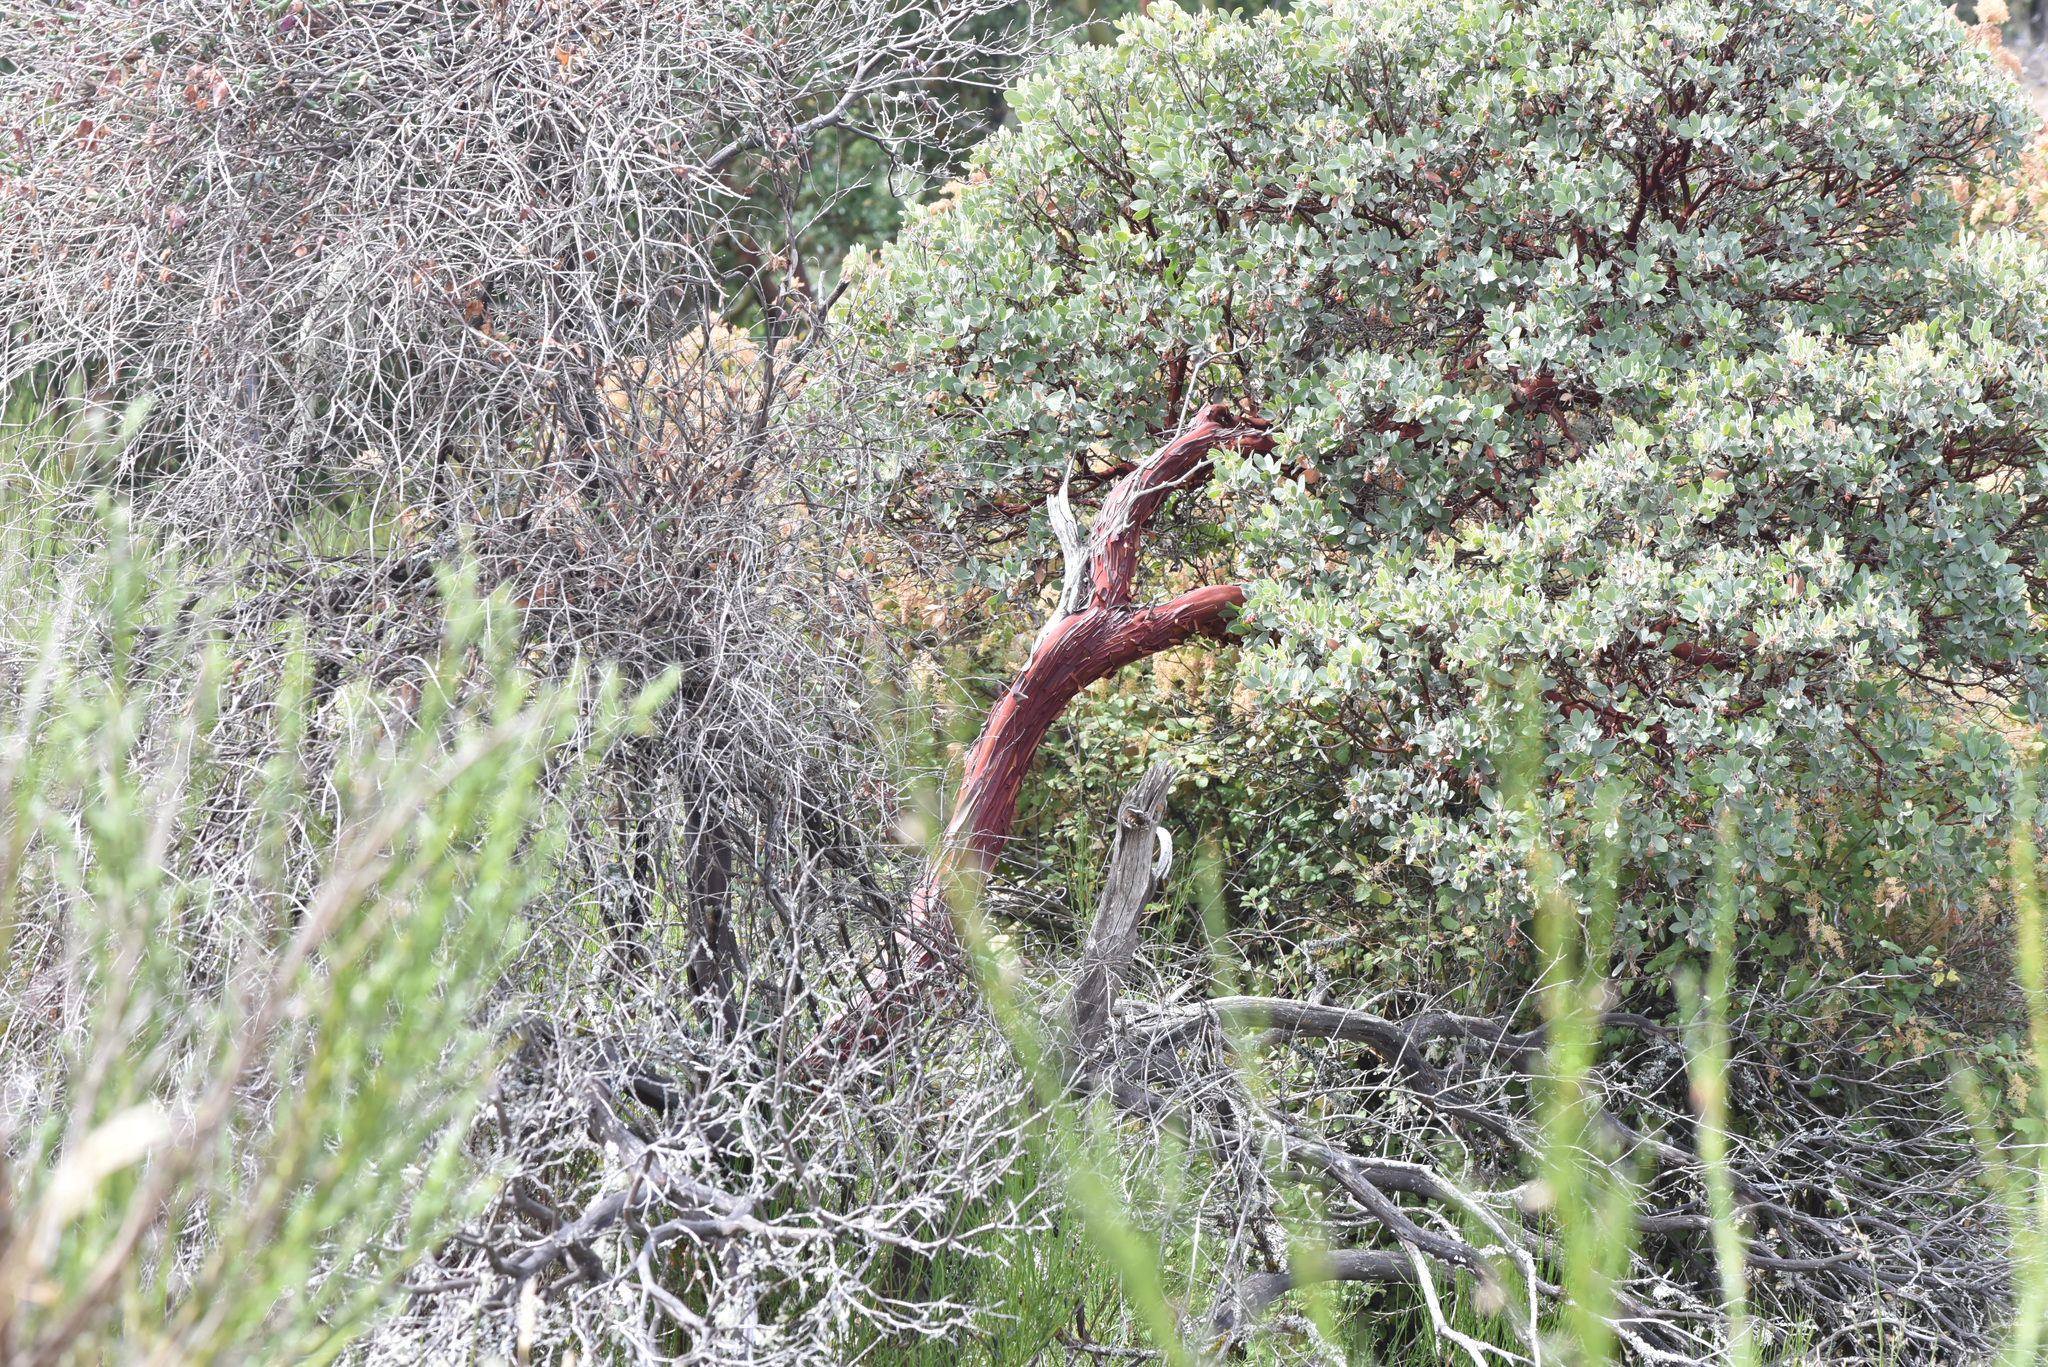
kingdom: Plantae
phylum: Tracheophyta
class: Magnoliopsida
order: Ericales
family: Ericaceae
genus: Arctostaphylos
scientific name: Arctostaphylos columbiana
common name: Bristly bearberry
